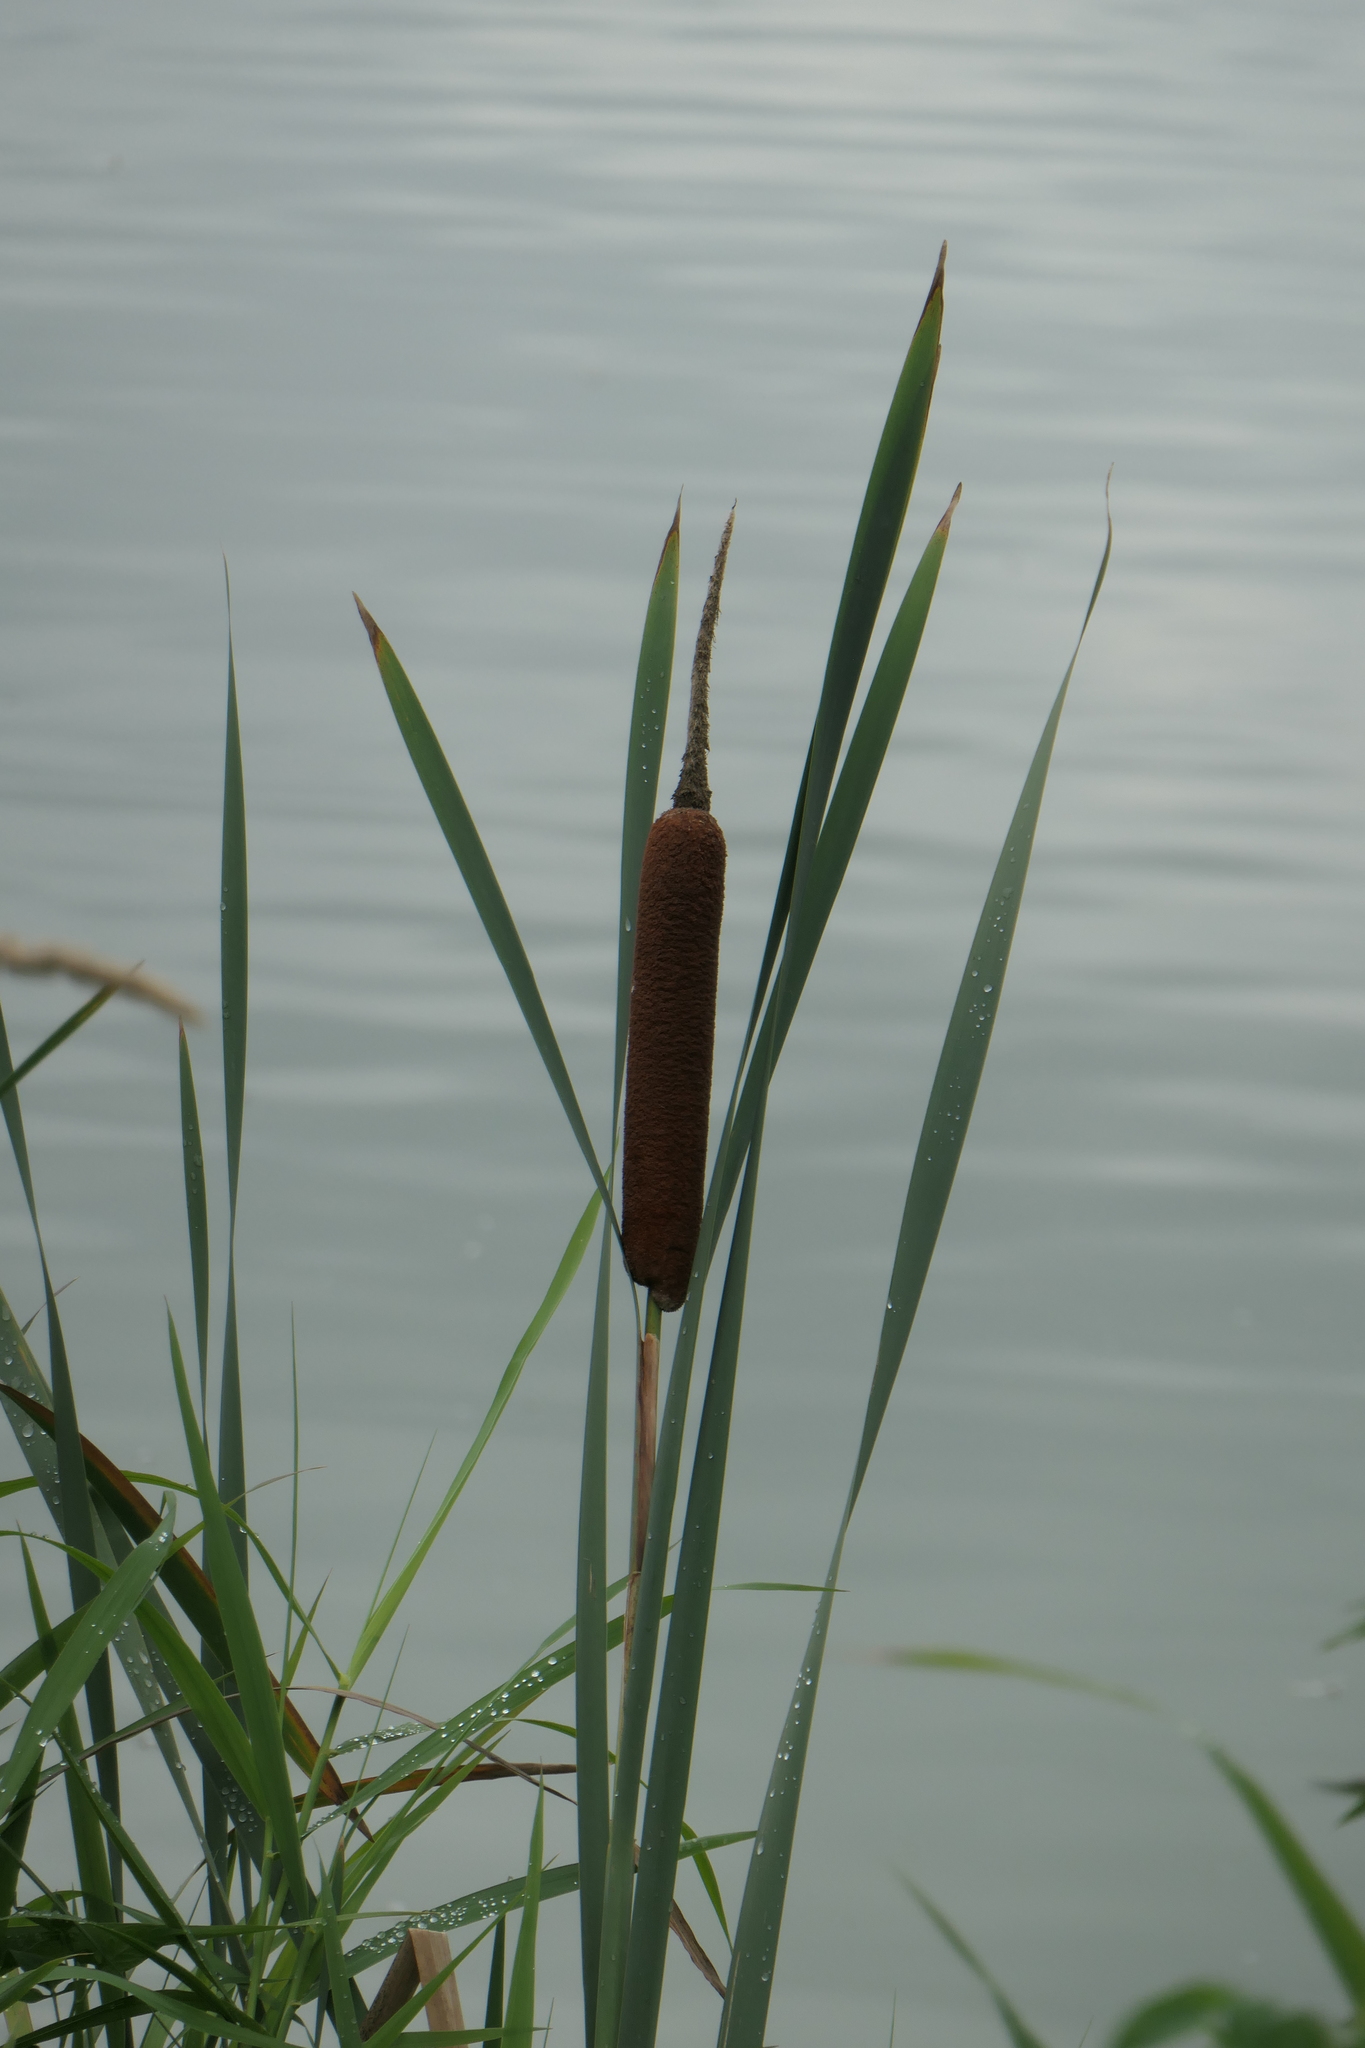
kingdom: Plantae
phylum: Tracheophyta
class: Liliopsida
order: Poales
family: Typhaceae
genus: Typha
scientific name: Typha latifolia
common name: Broadleaf cattail
